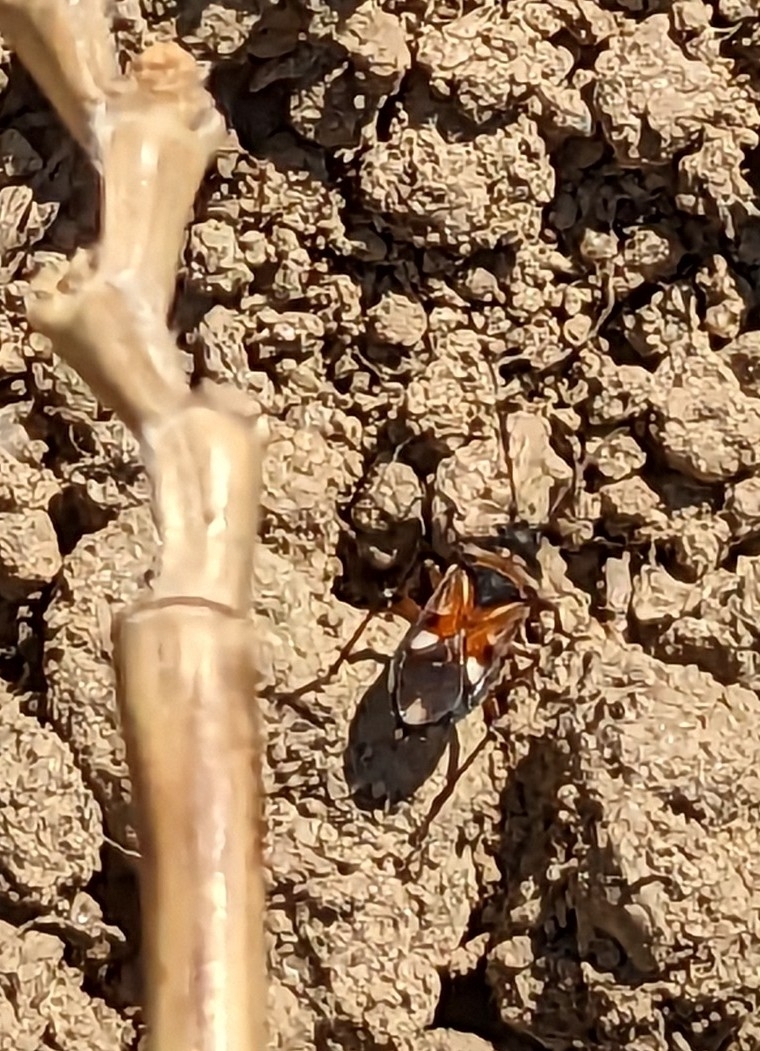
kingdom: Animalia
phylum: Arthropoda
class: Insecta
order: Hemiptera
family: Rhyparochromidae
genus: Raglius
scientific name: Raglius alboacuminatus
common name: Dirt-colored seed bug
